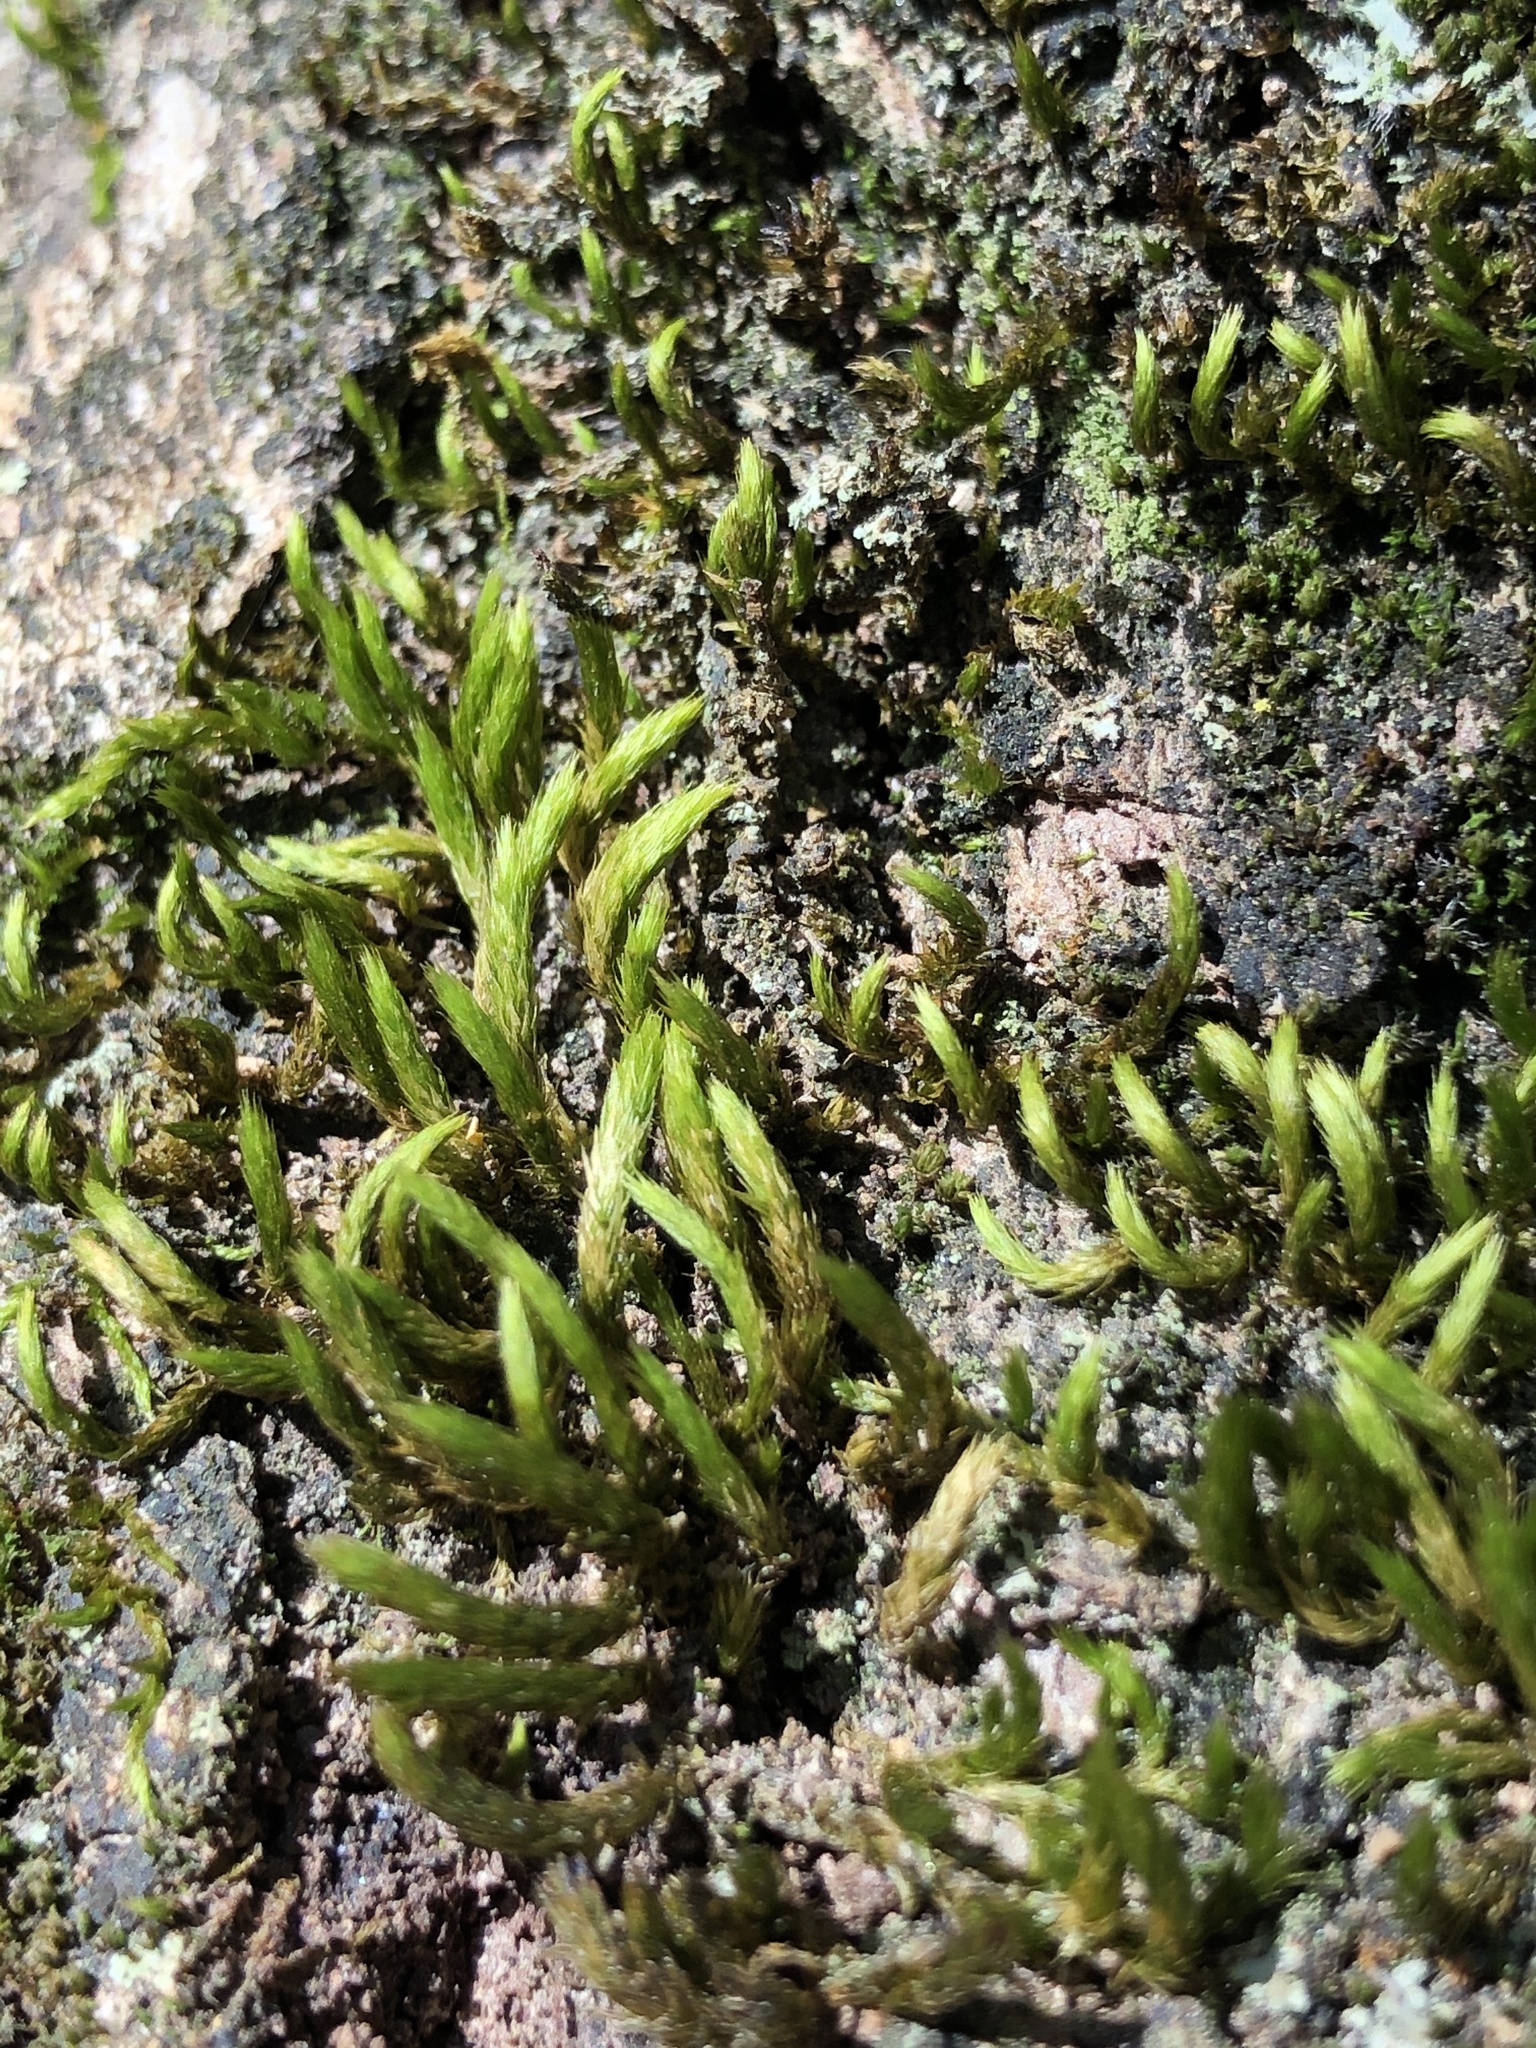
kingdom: Plantae
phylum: Bryophyta
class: Bryopsida
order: Hypnales
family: Leucodontaceae
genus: Leucodon
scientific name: Leucodon sciuroides
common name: Squirrel-tail moss
